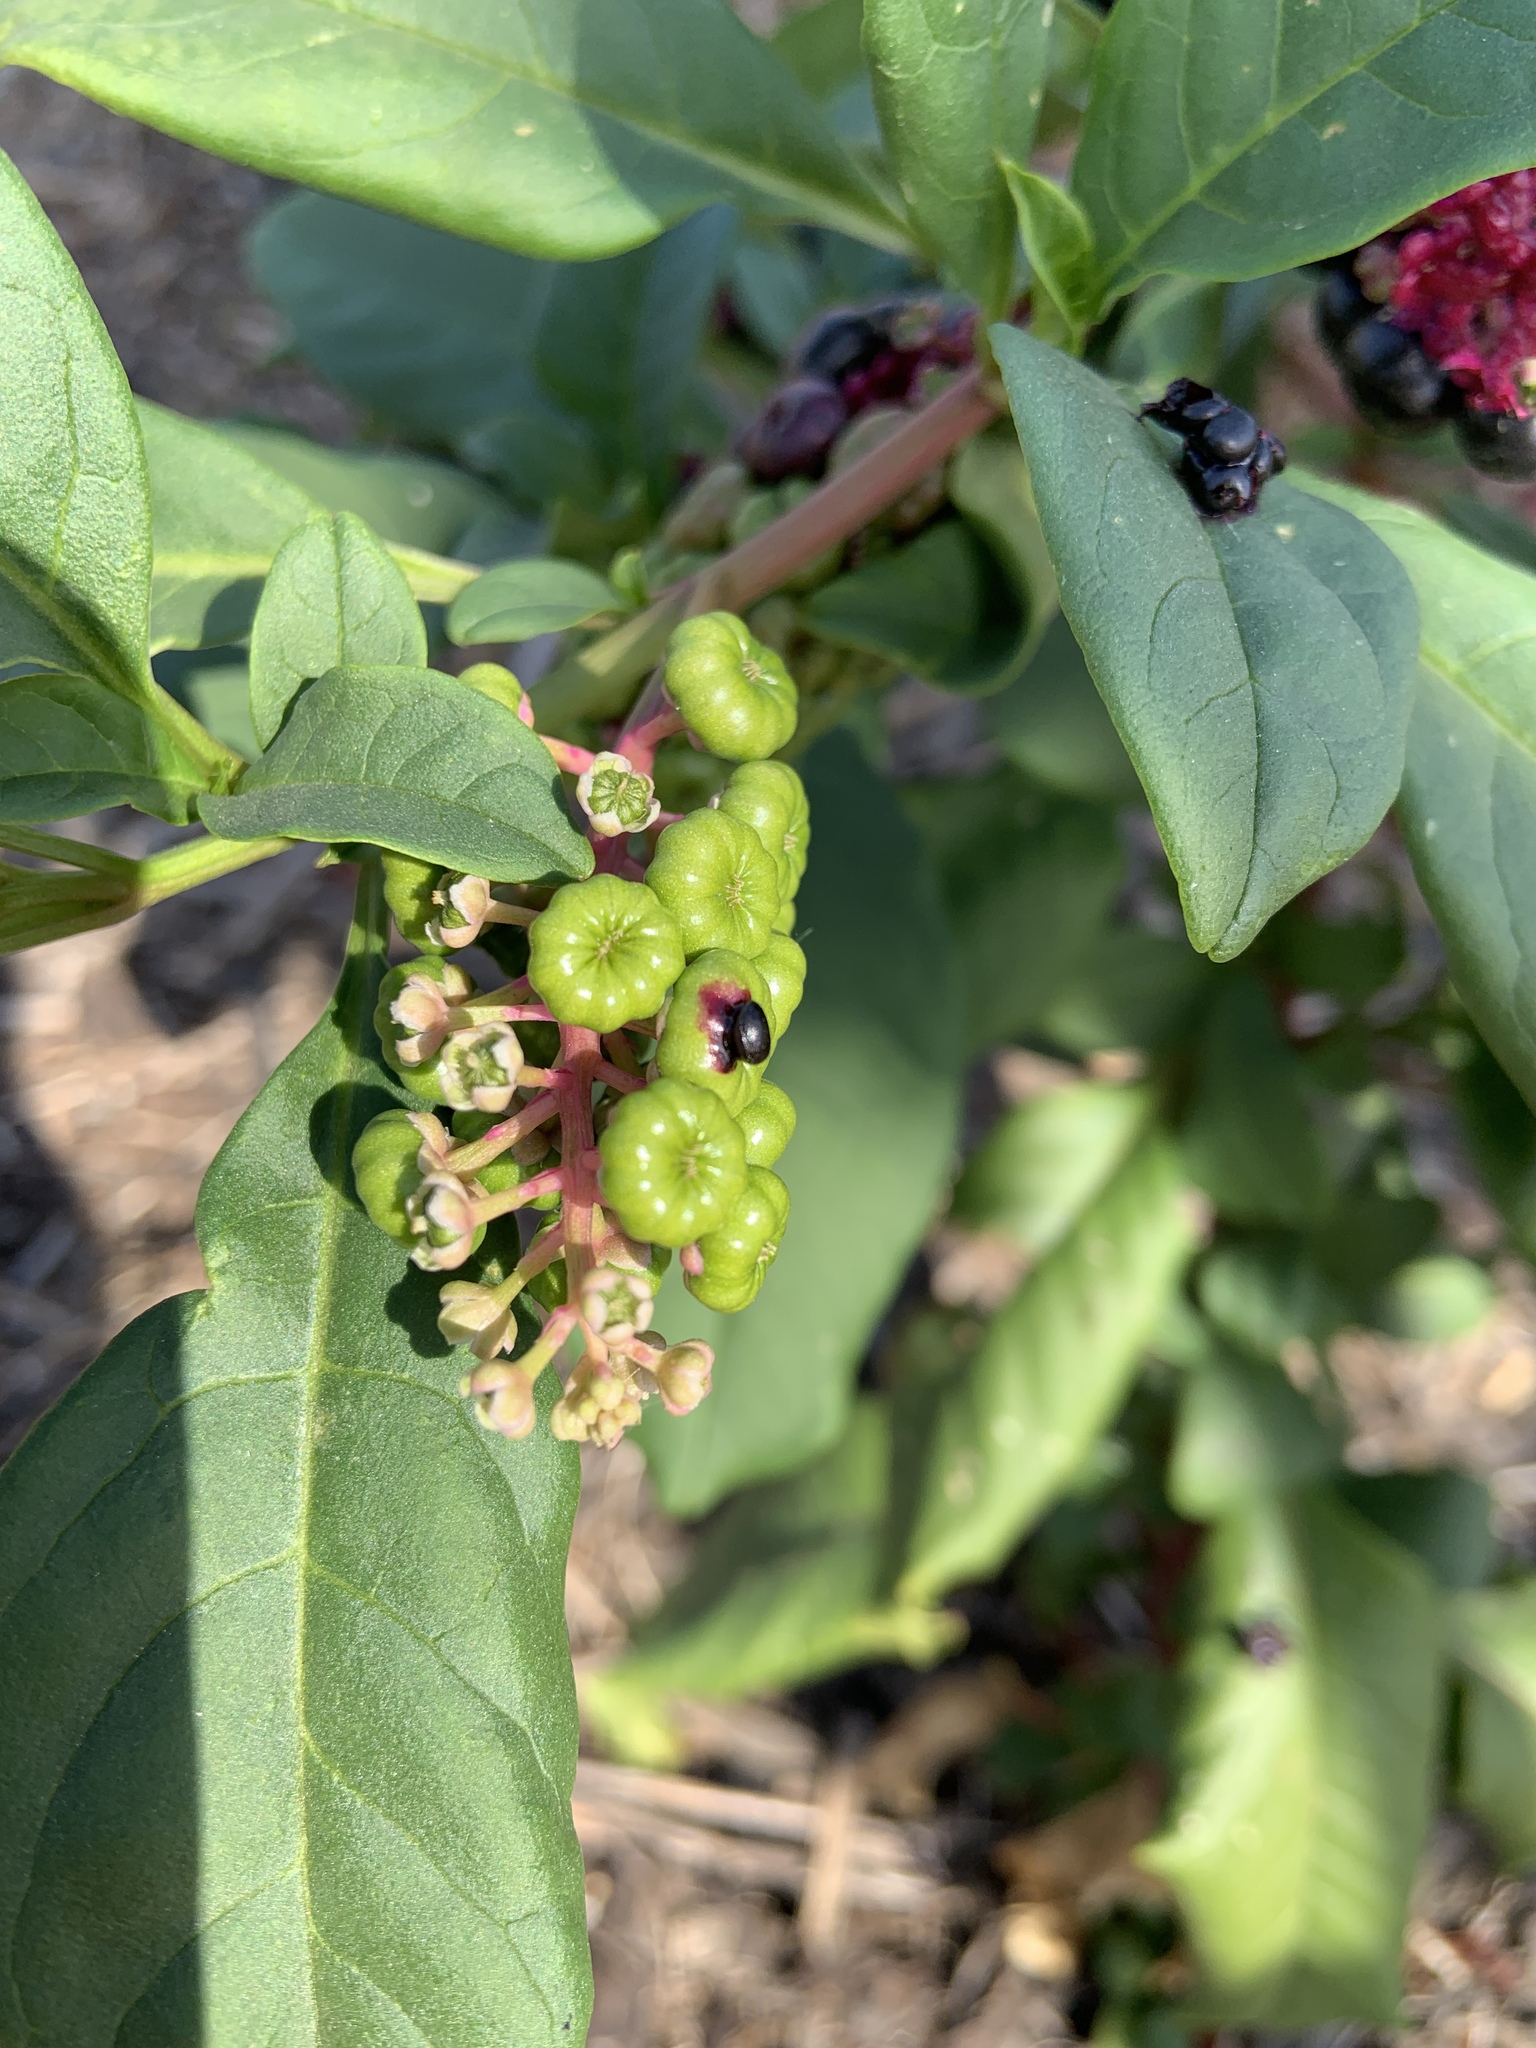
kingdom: Plantae
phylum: Tracheophyta
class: Magnoliopsida
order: Caryophyllales
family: Phytolaccaceae
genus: Phytolacca
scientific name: Phytolacca americana
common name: American pokeweed
